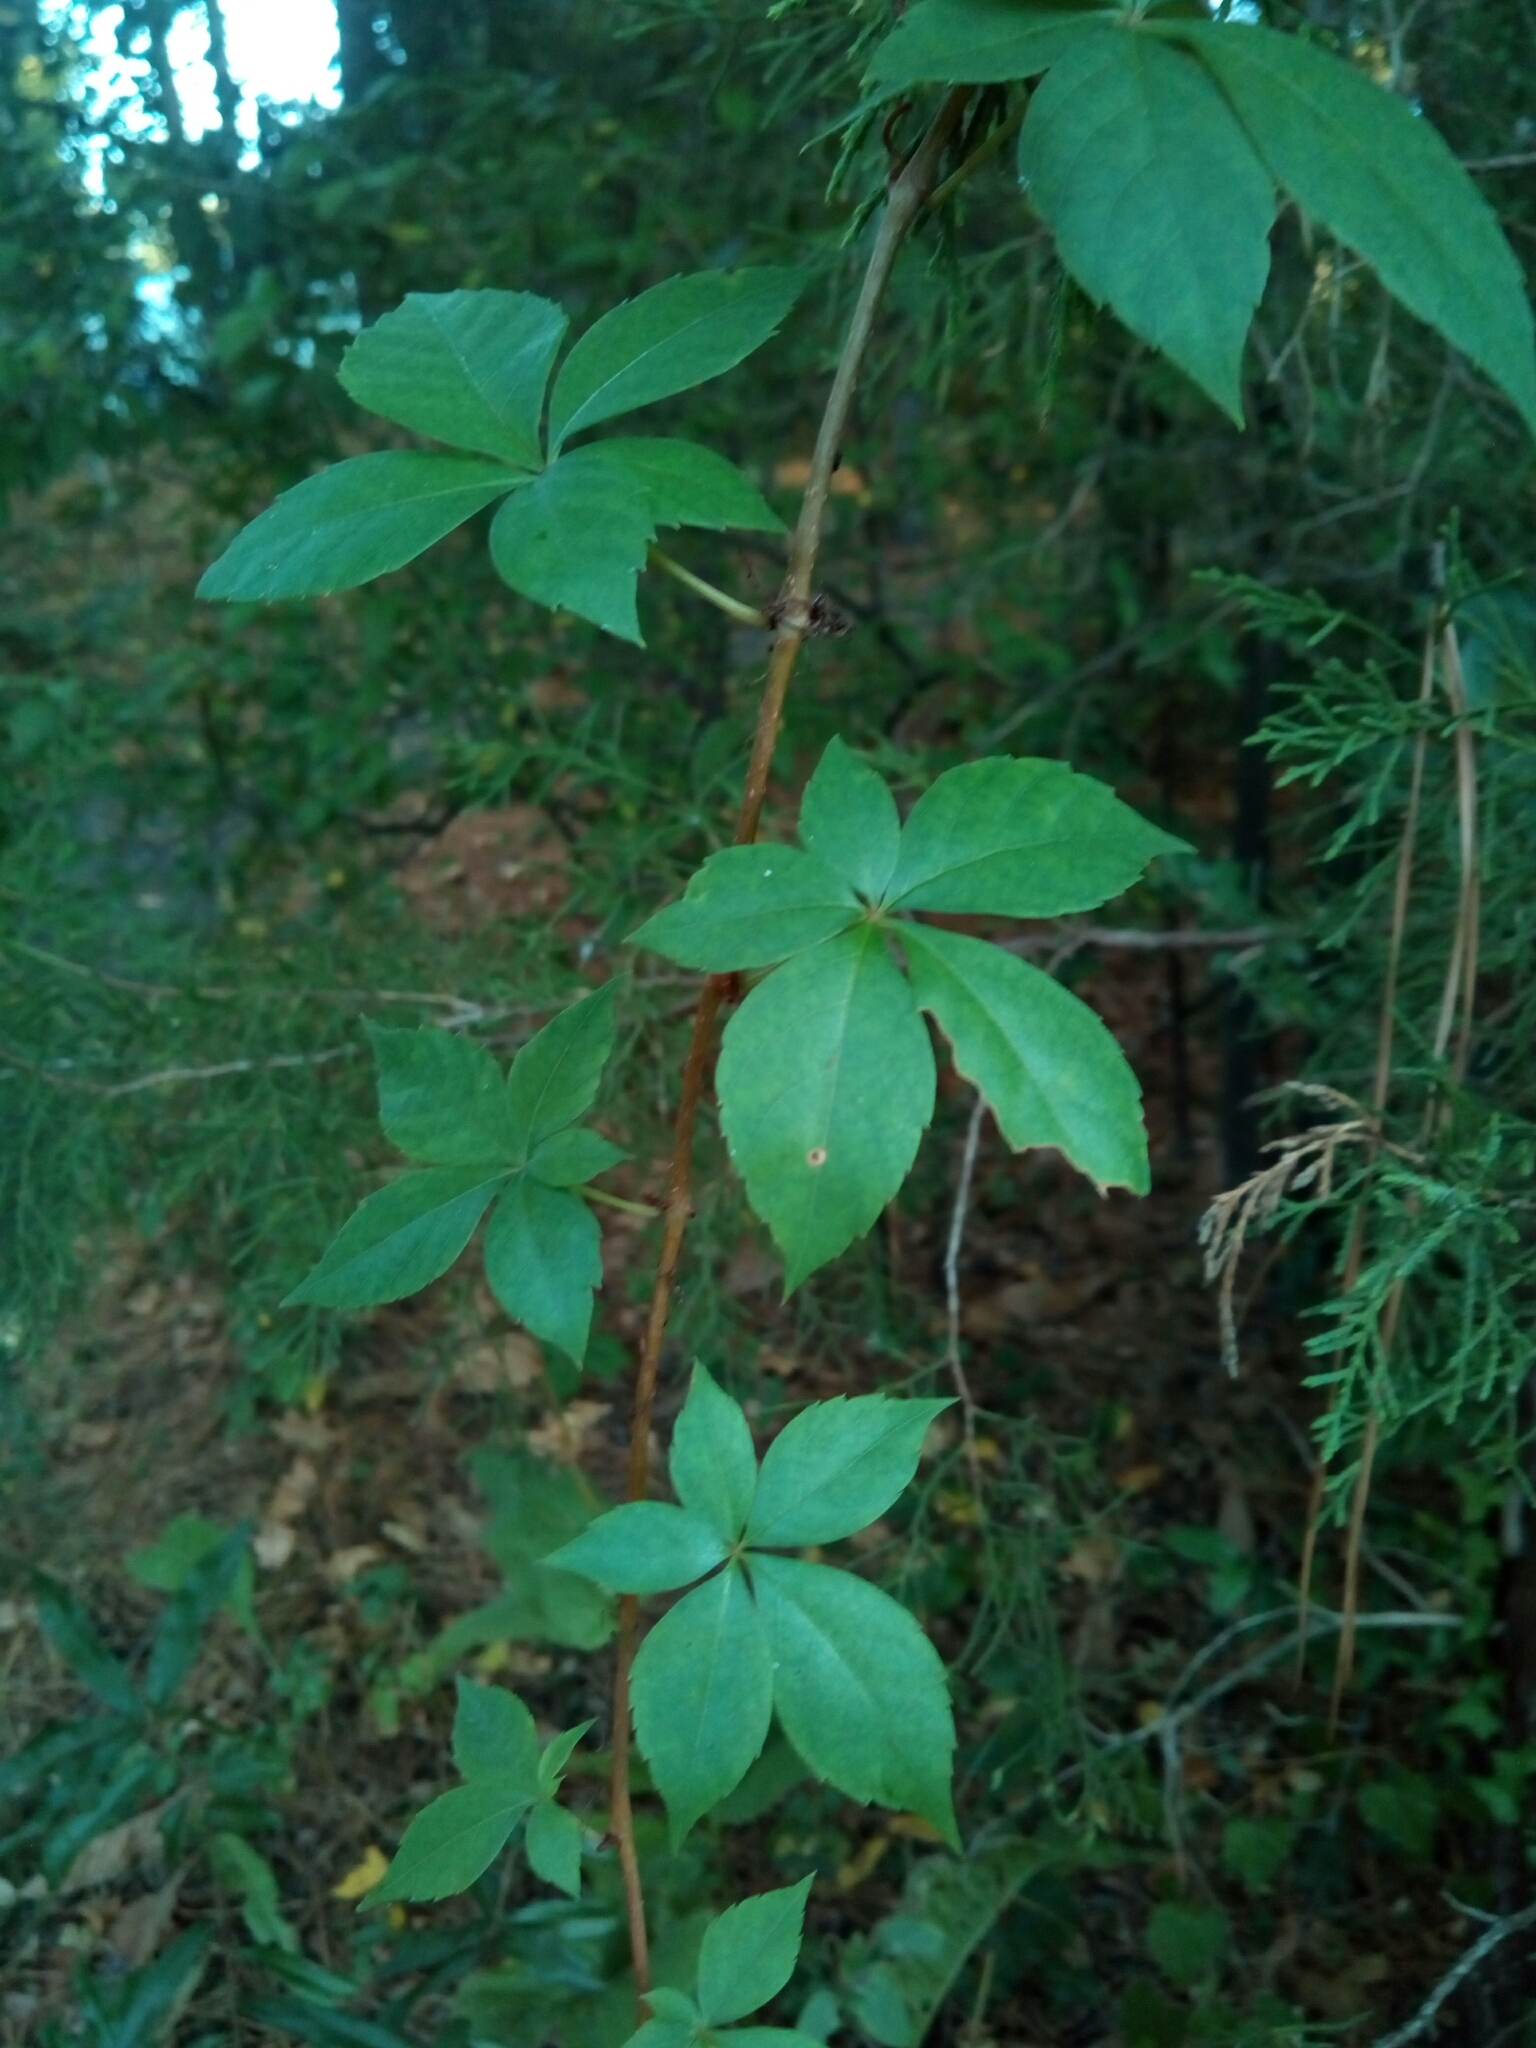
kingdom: Plantae
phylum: Tracheophyta
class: Magnoliopsida
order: Vitales
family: Vitaceae
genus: Parthenocissus
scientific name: Parthenocissus quinquefolia
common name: Virginia-creeper
